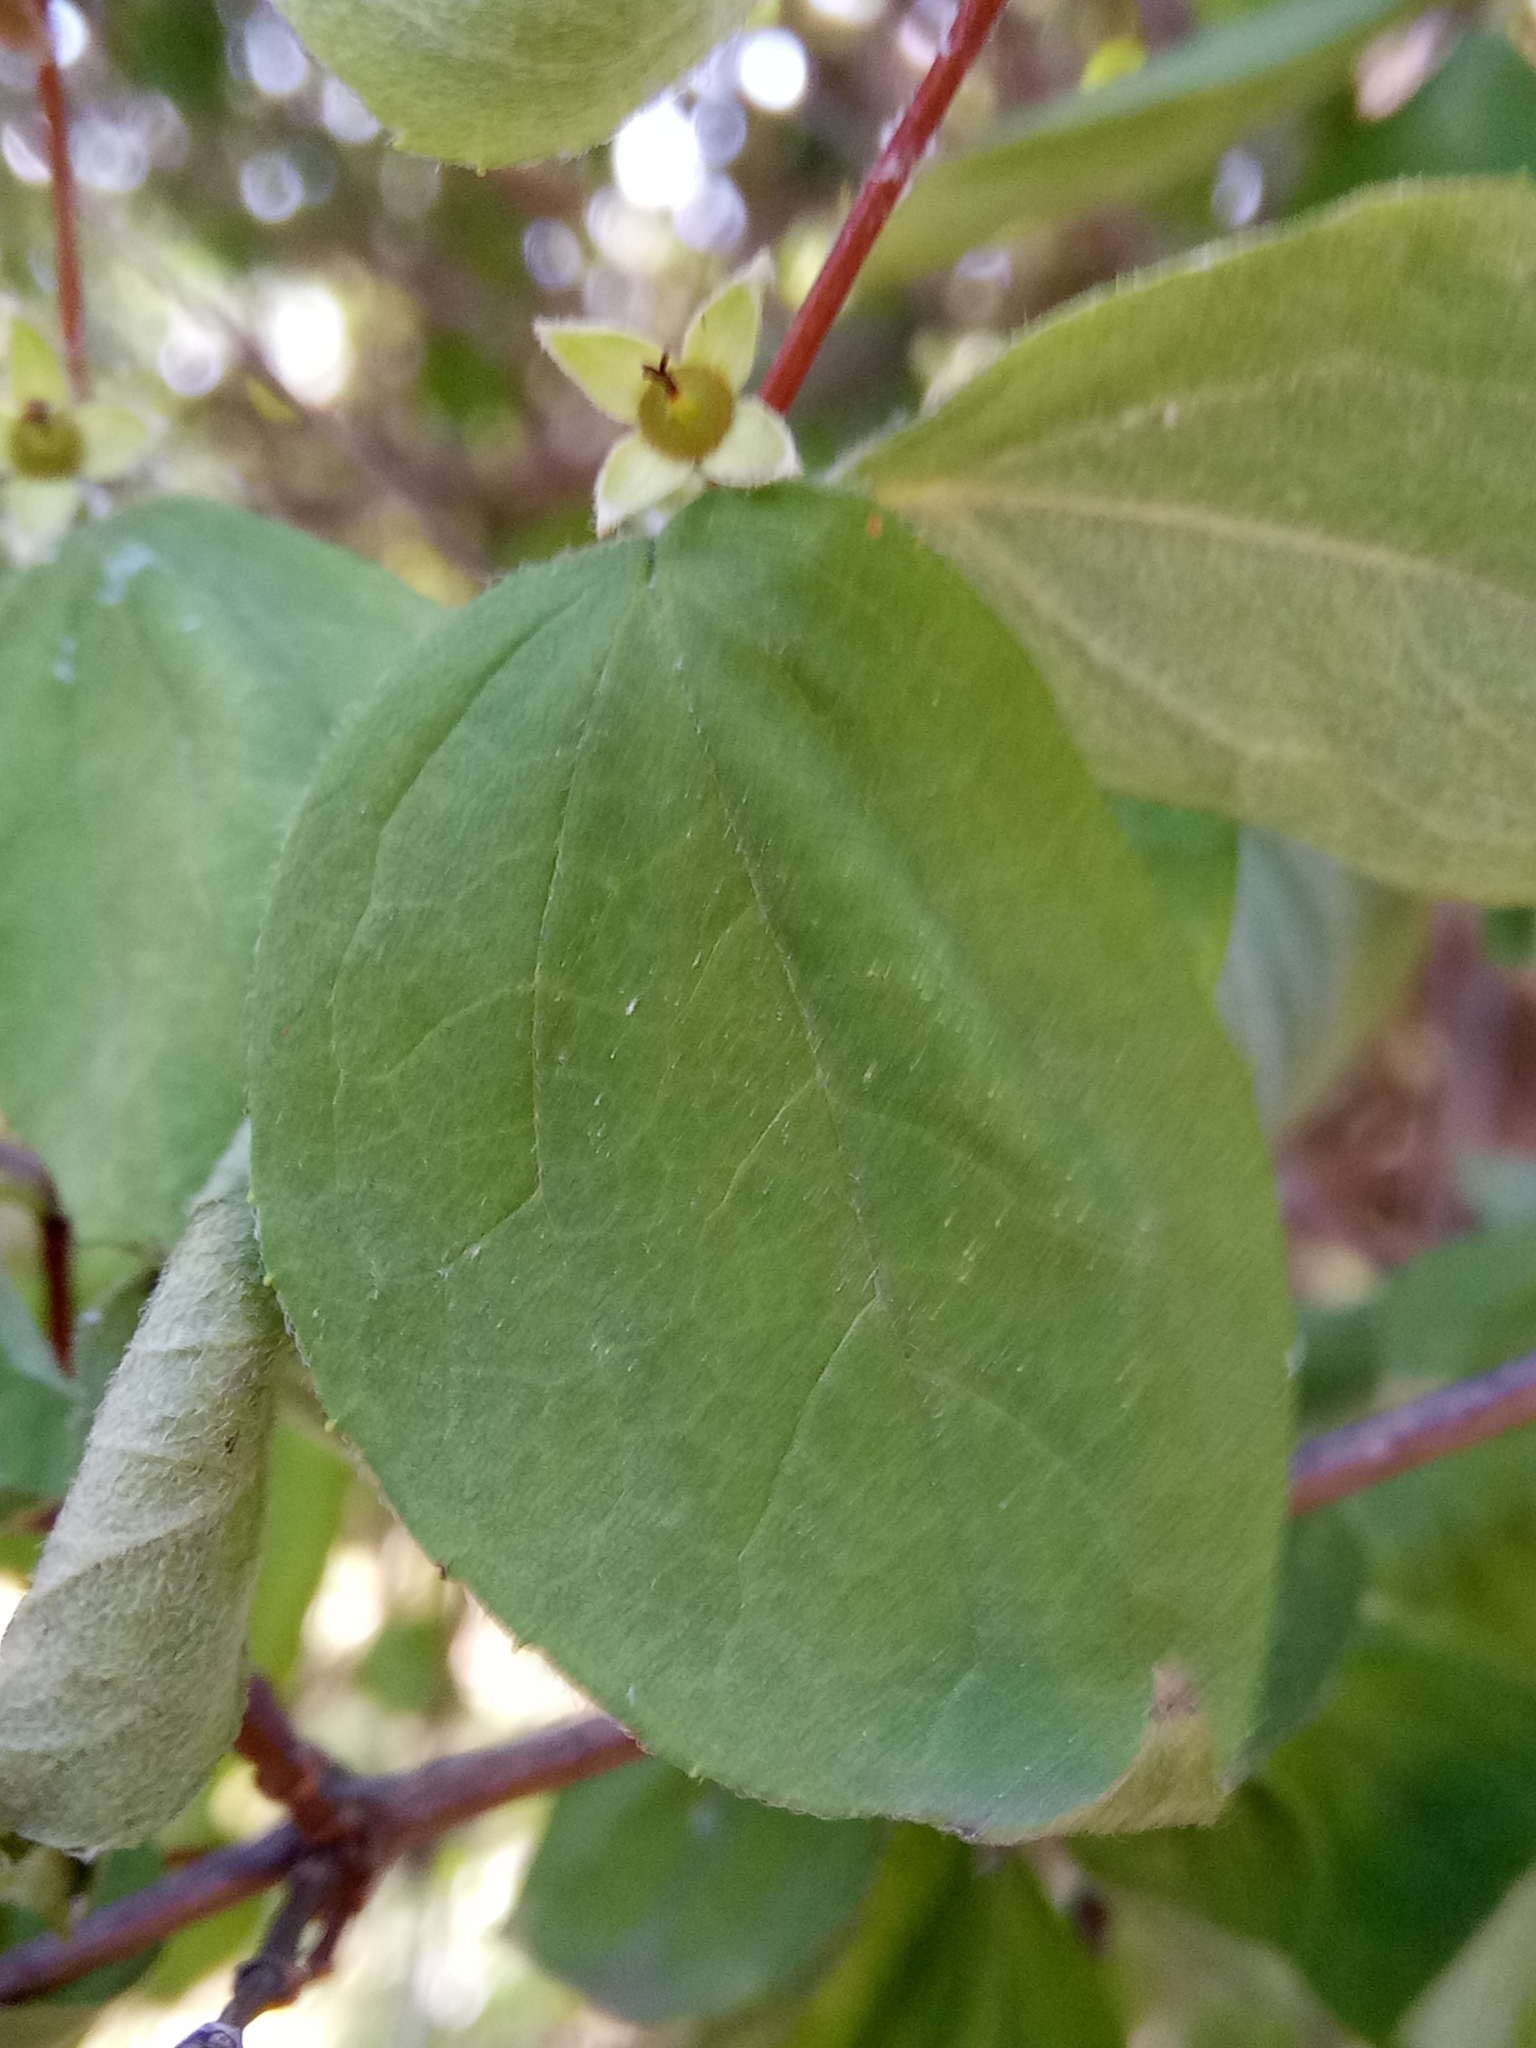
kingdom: Plantae
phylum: Tracheophyta
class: Magnoliopsida
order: Cornales
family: Hydrangeaceae
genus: Philadelphus
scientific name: Philadelphus coronarius
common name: Mock orange
